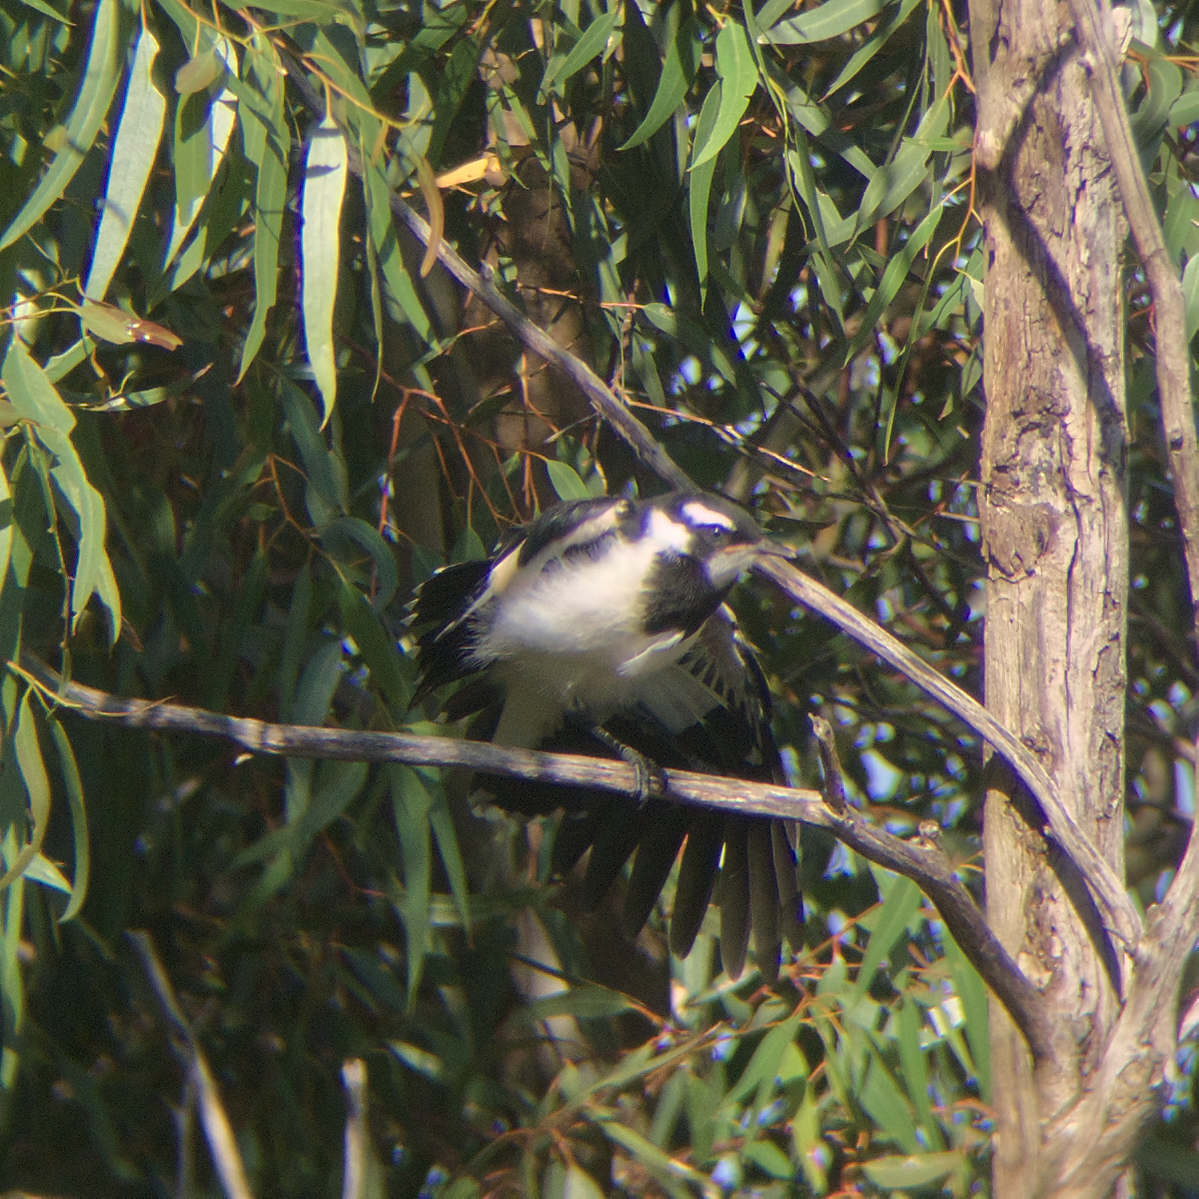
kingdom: Animalia
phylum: Chordata
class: Aves
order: Passeriformes
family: Monarchidae
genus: Grallina
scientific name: Grallina cyanoleuca
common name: Magpie-lark
